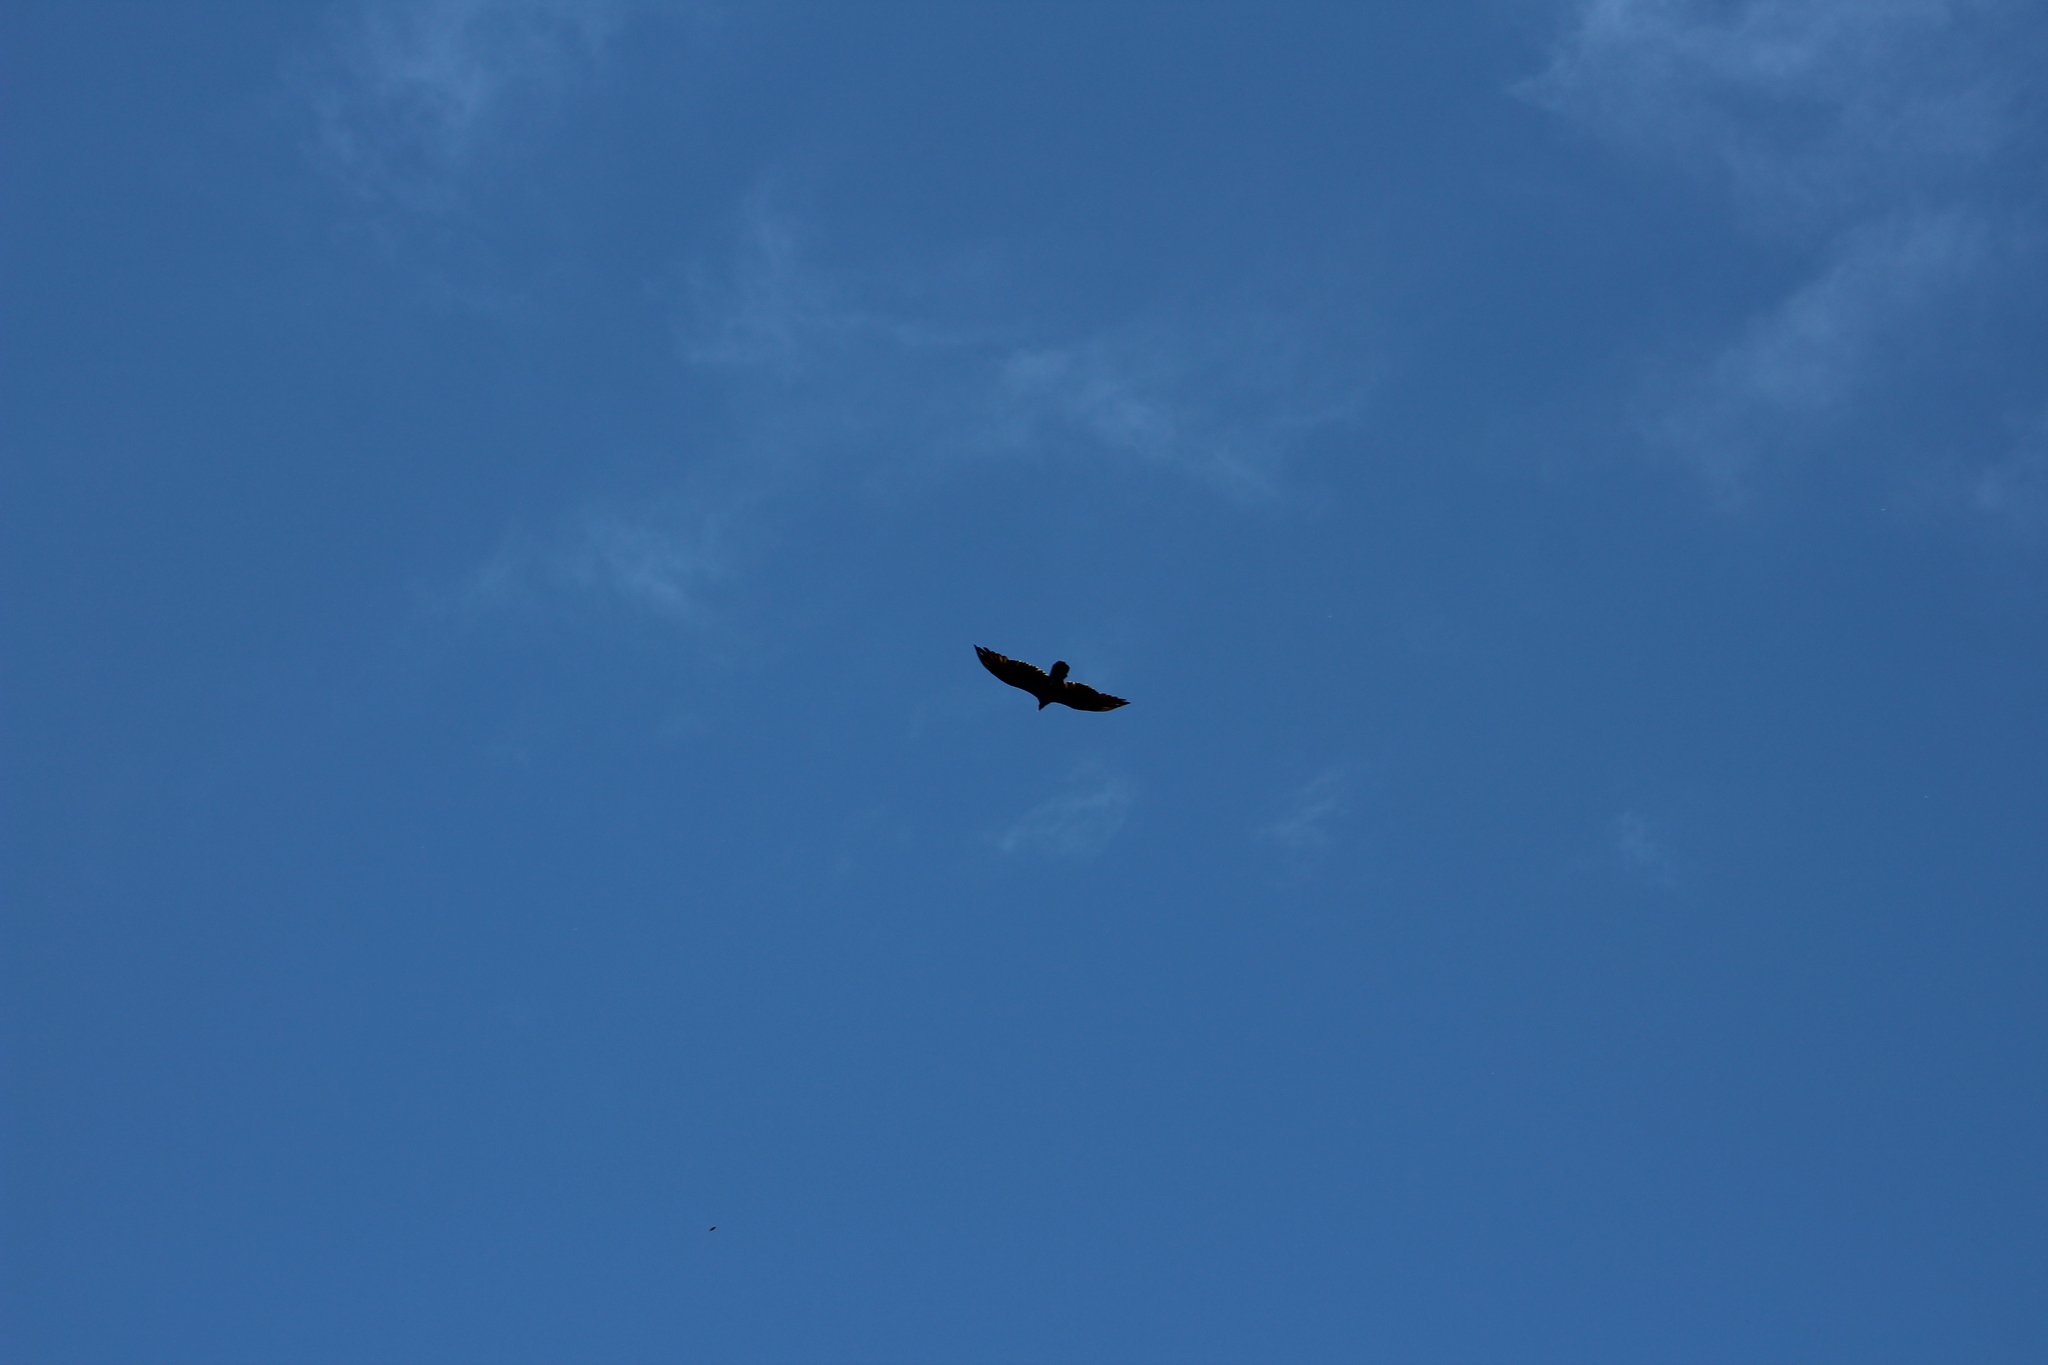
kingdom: Animalia
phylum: Chordata
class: Aves
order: Accipitriformes
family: Cathartidae
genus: Cathartes
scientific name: Cathartes aura
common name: Turkey vulture
